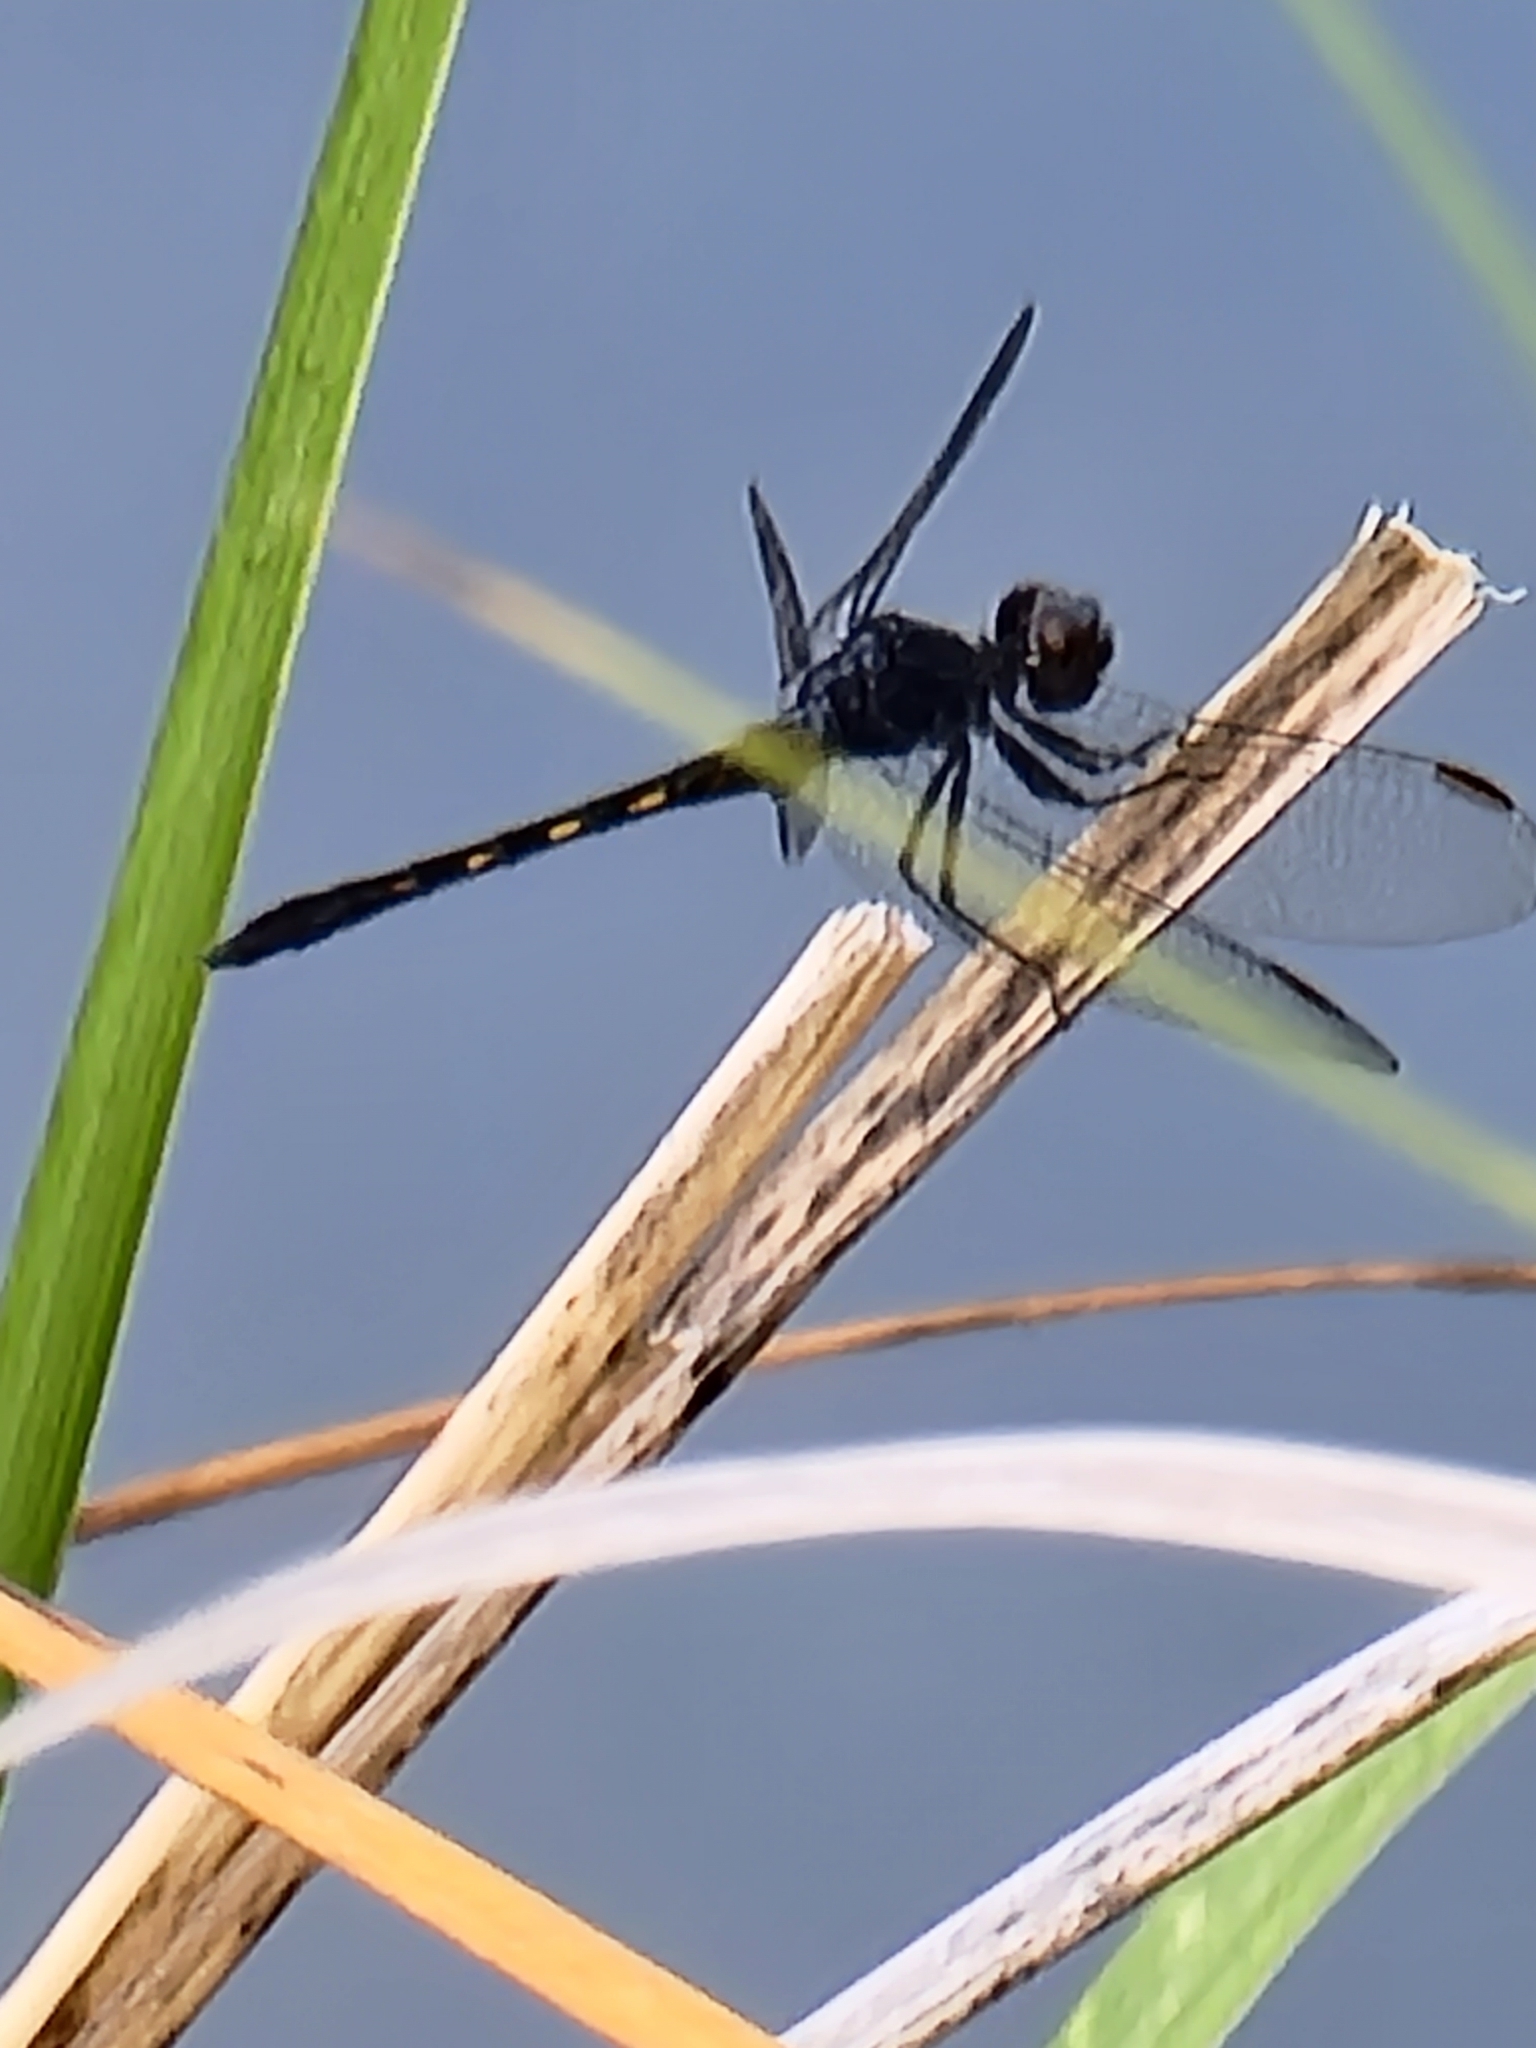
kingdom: Animalia
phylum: Arthropoda
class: Insecta
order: Odonata
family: Libellulidae
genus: Erythrodiplax
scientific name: Erythrodiplax berenice
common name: Seaside dragonlet
